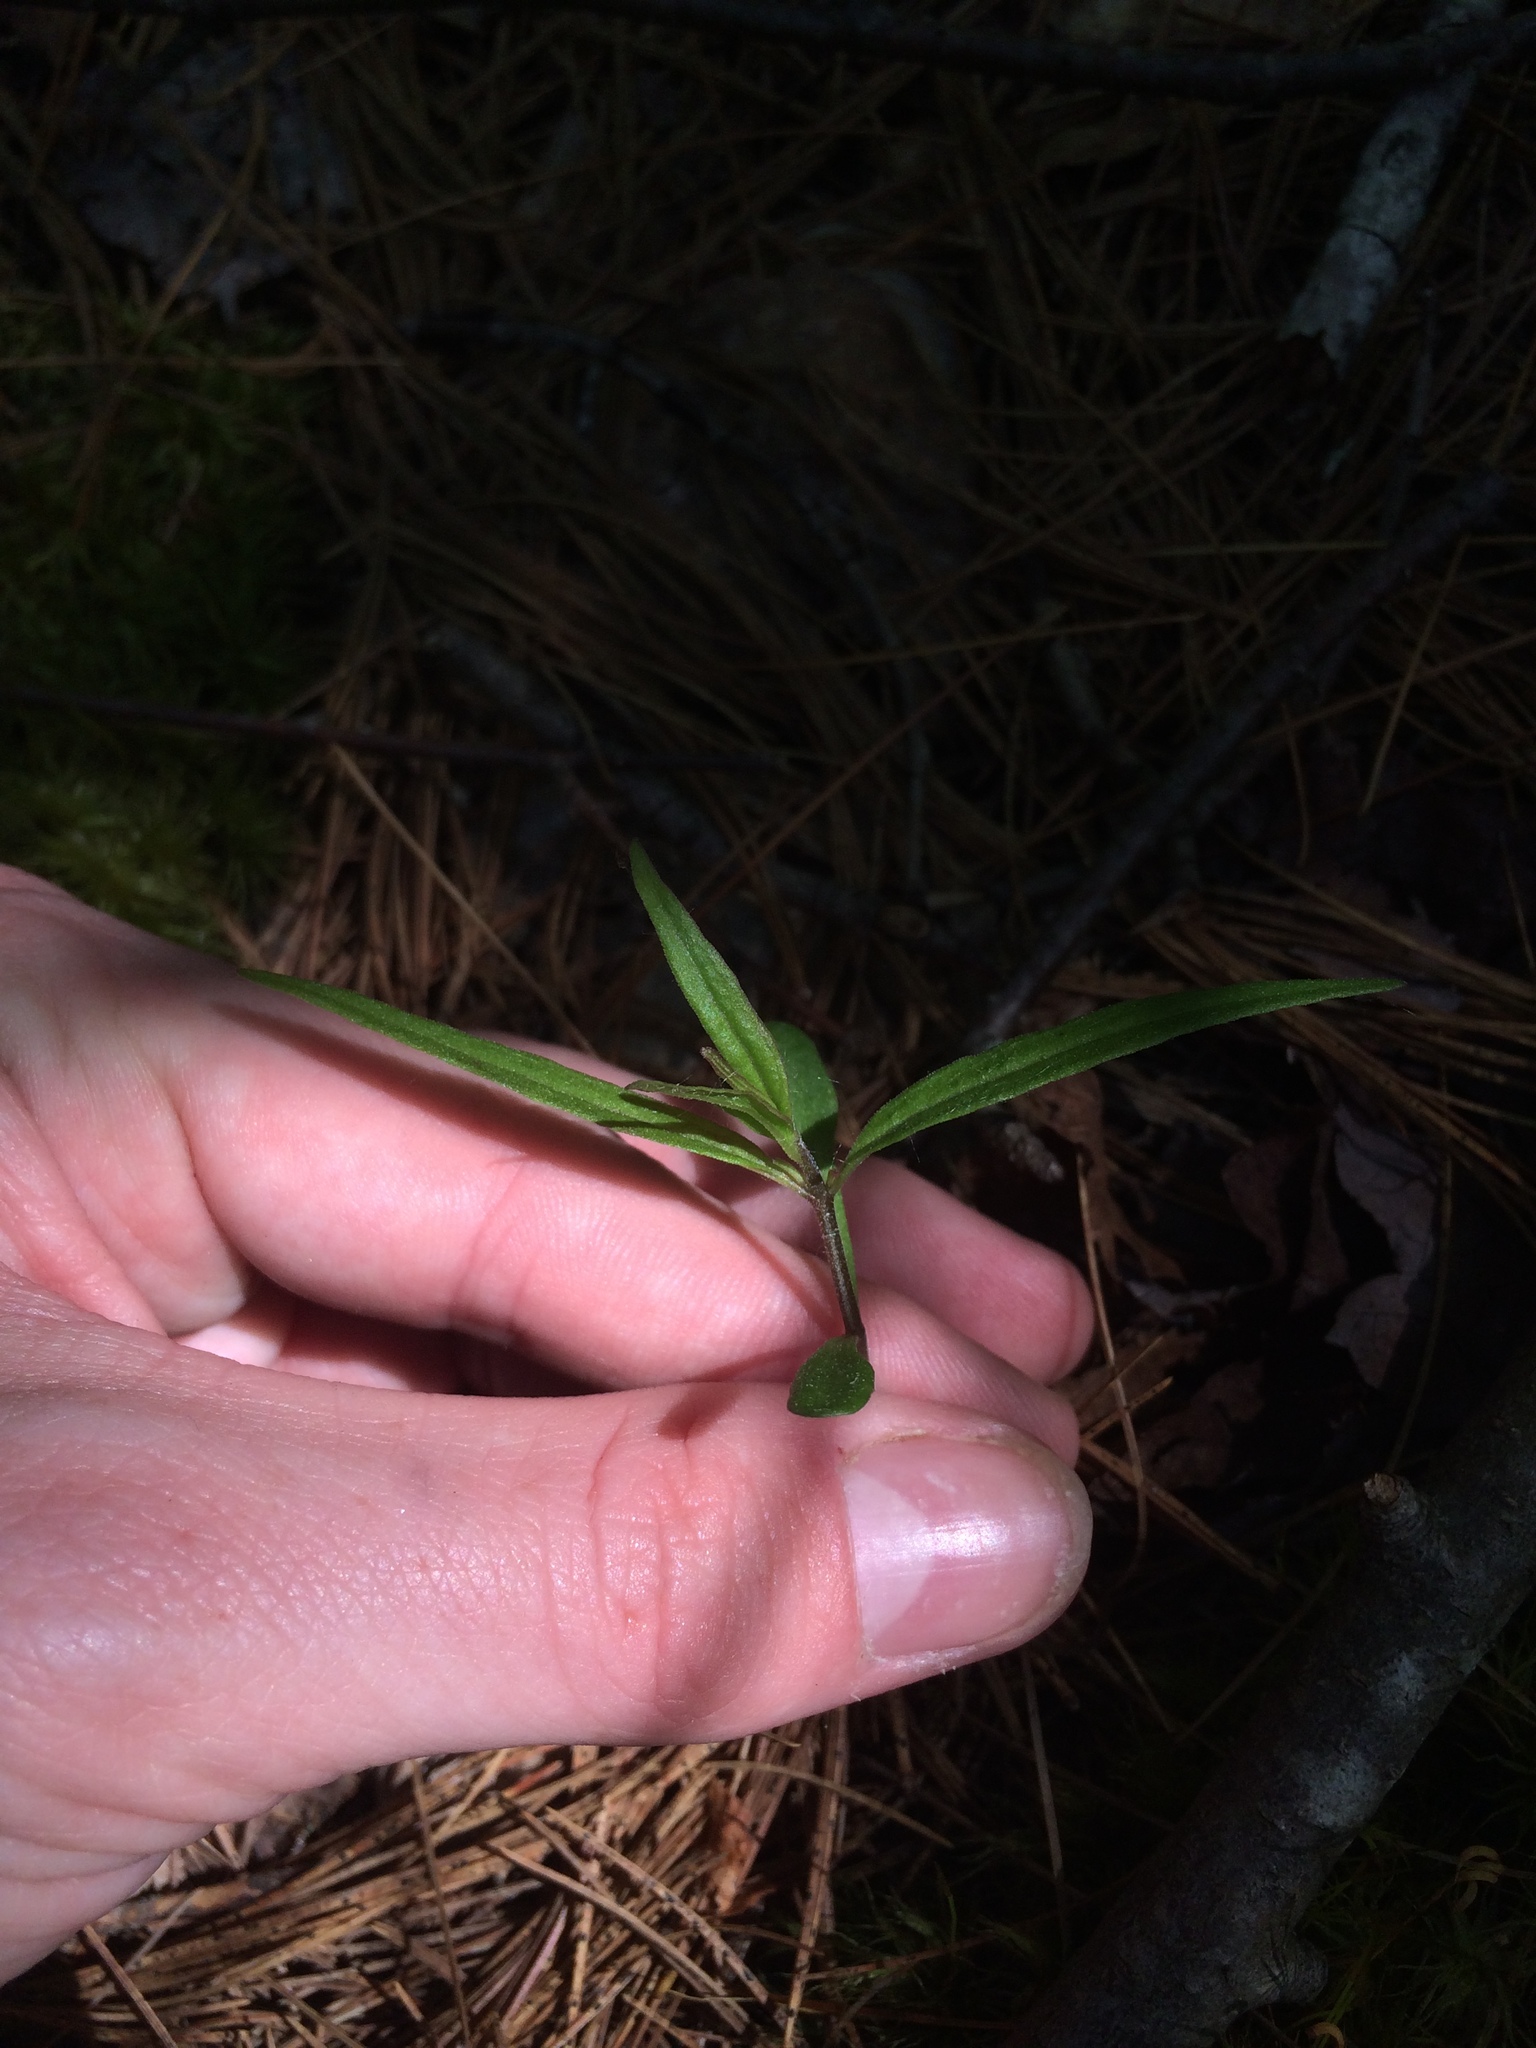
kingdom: Plantae
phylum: Tracheophyta
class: Magnoliopsida
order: Lamiales
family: Orobanchaceae
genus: Melampyrum
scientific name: Melampyrum lineare
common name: American cow-wheat
